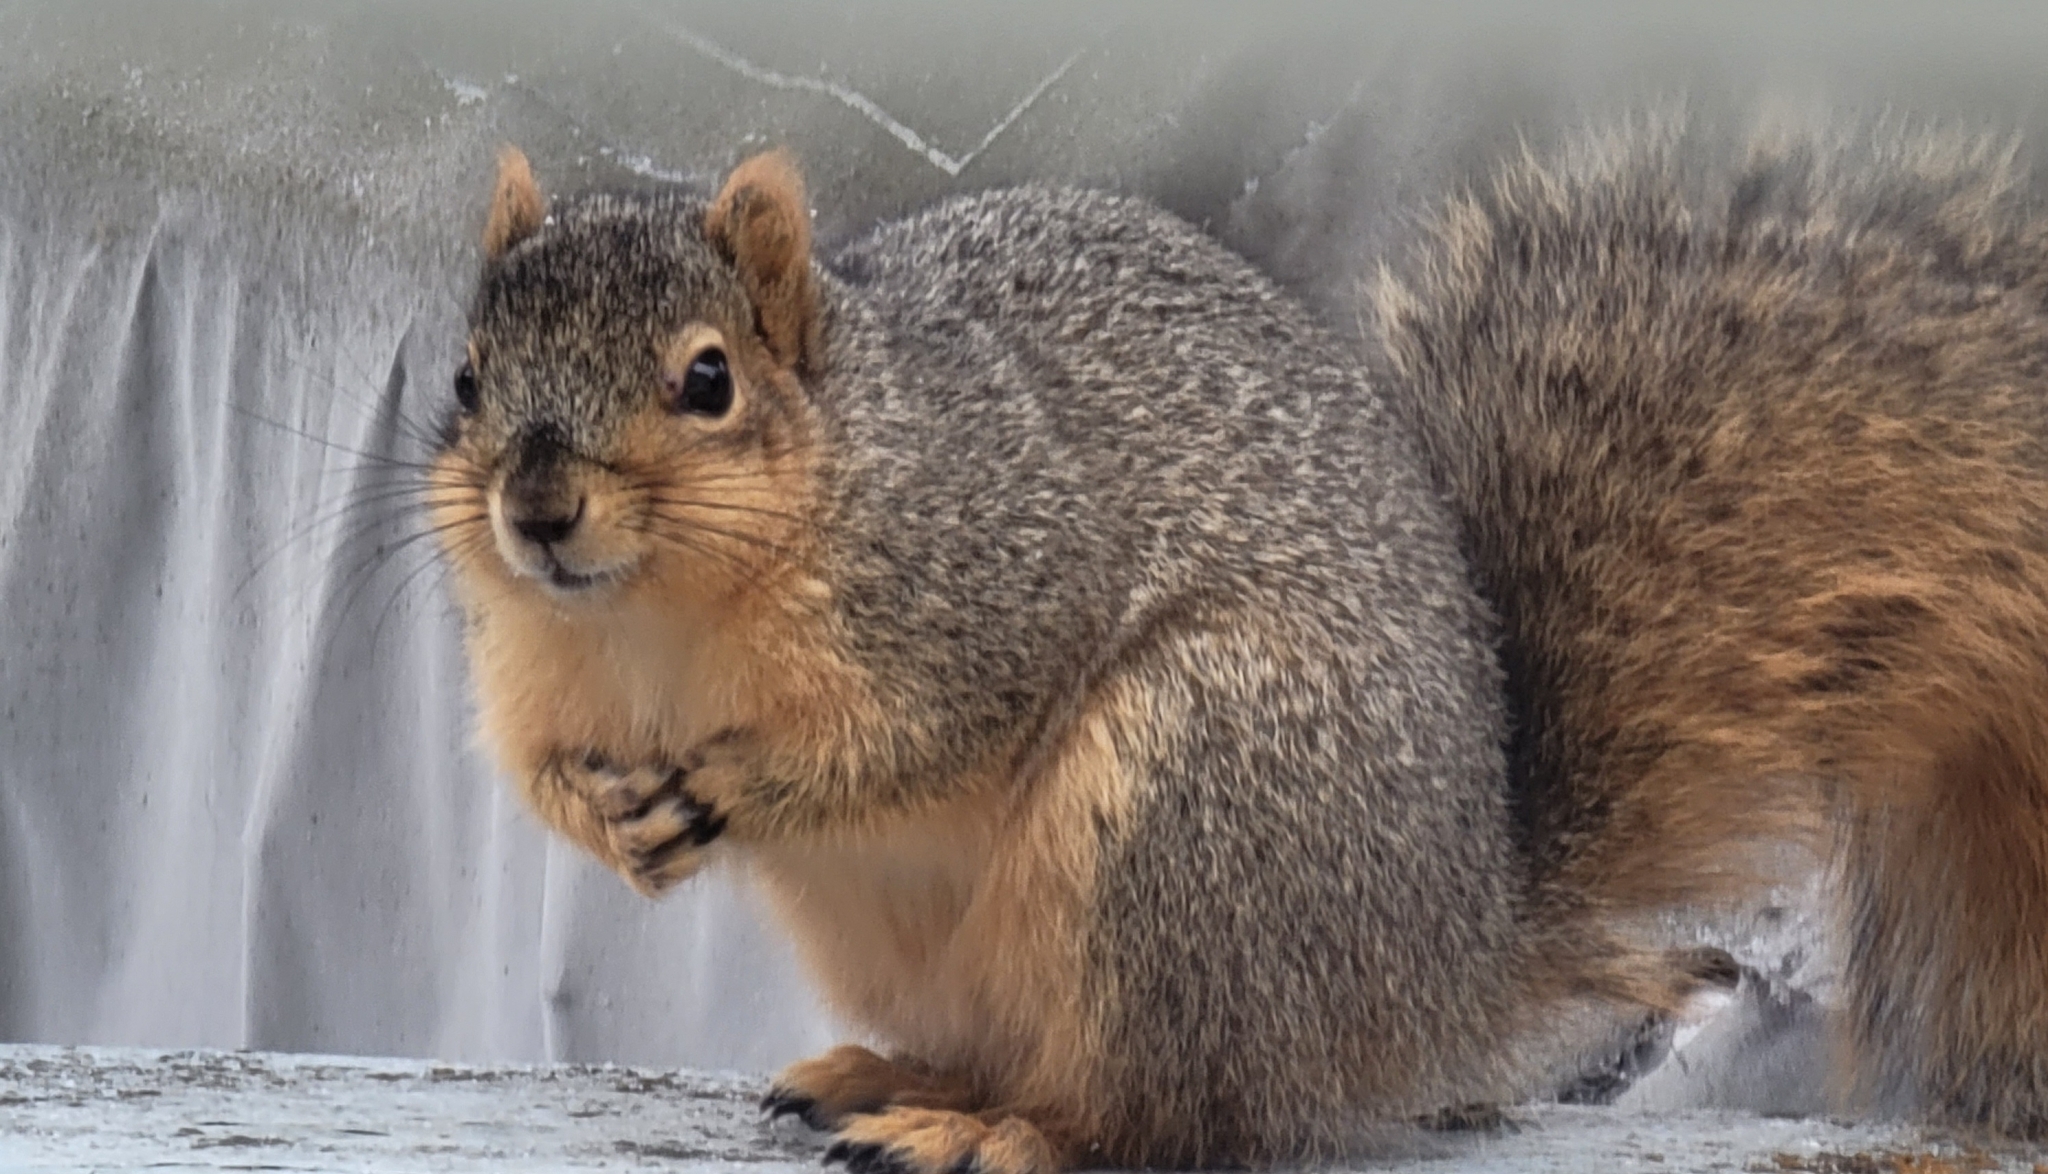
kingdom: Animalia
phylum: Chordata
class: Mammalia
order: Rodentia
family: Sciuridae
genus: Sciurus
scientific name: Sciurus niger
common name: Fox squirrel
